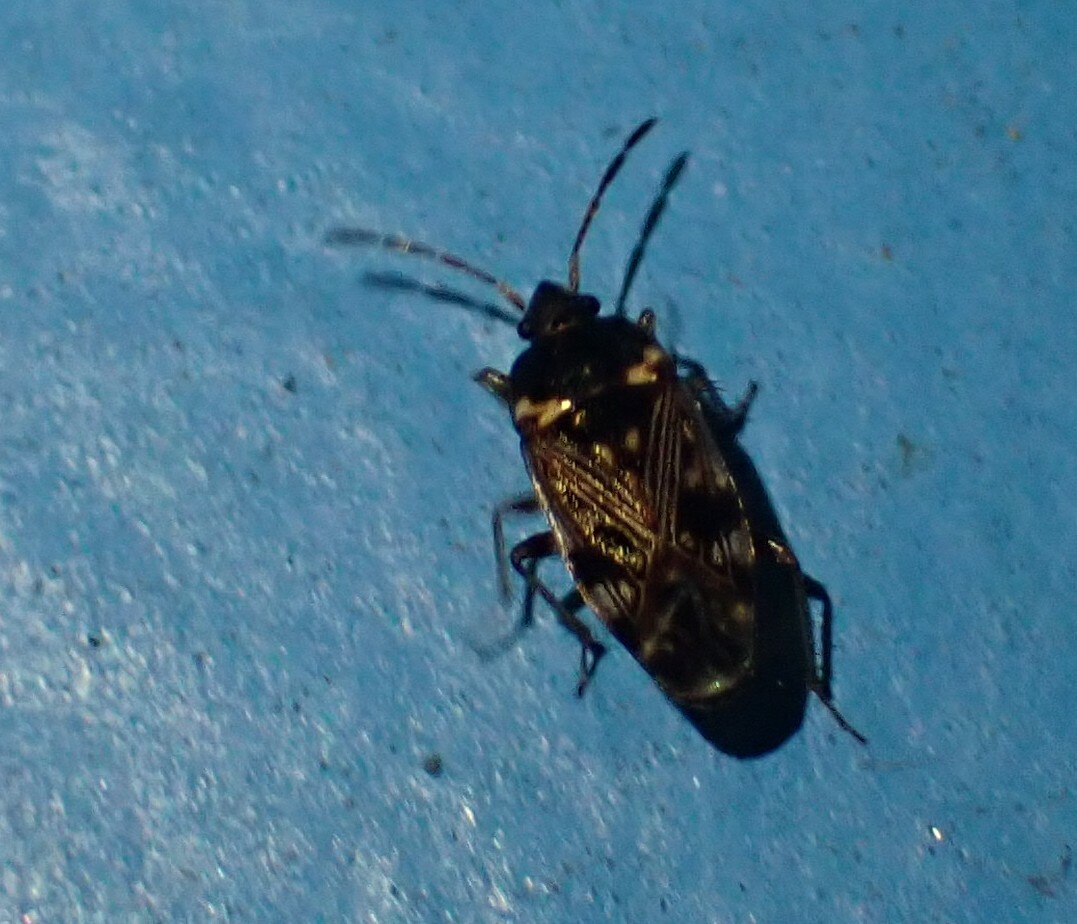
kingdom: Animalia
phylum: Arthropoda
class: Insecta
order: Hemiptera
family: Rhyparochromidae
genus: Cryphula
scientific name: Cryphula affinis
